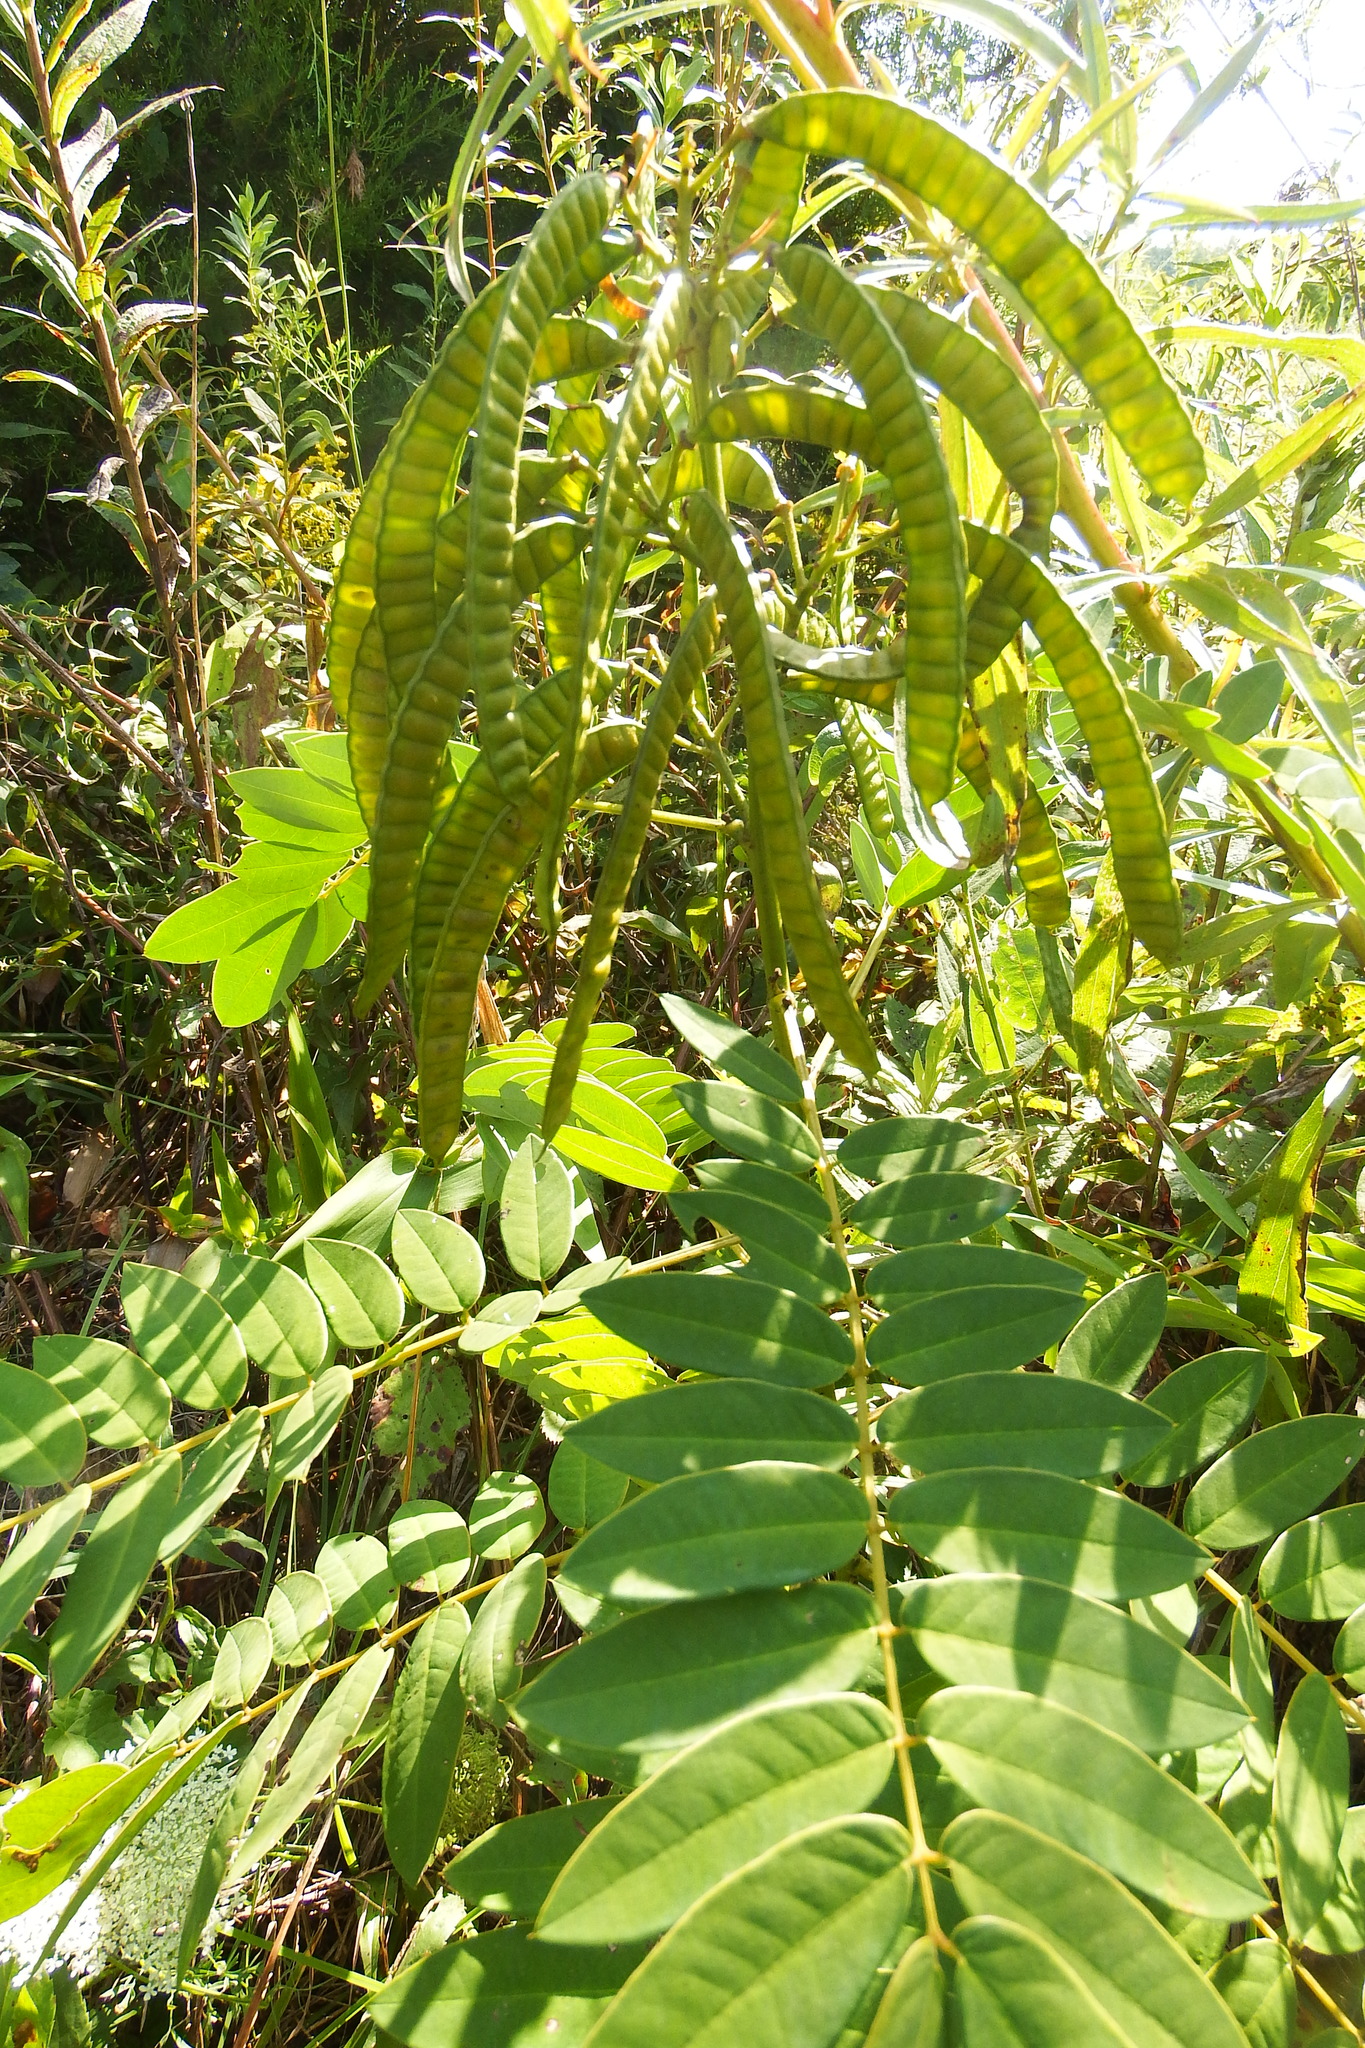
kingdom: Plantae
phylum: Tracheophyta
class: Magnoliopsida
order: Fabales
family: Fabaceae
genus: Senna
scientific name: Senna marilandica
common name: American senna
